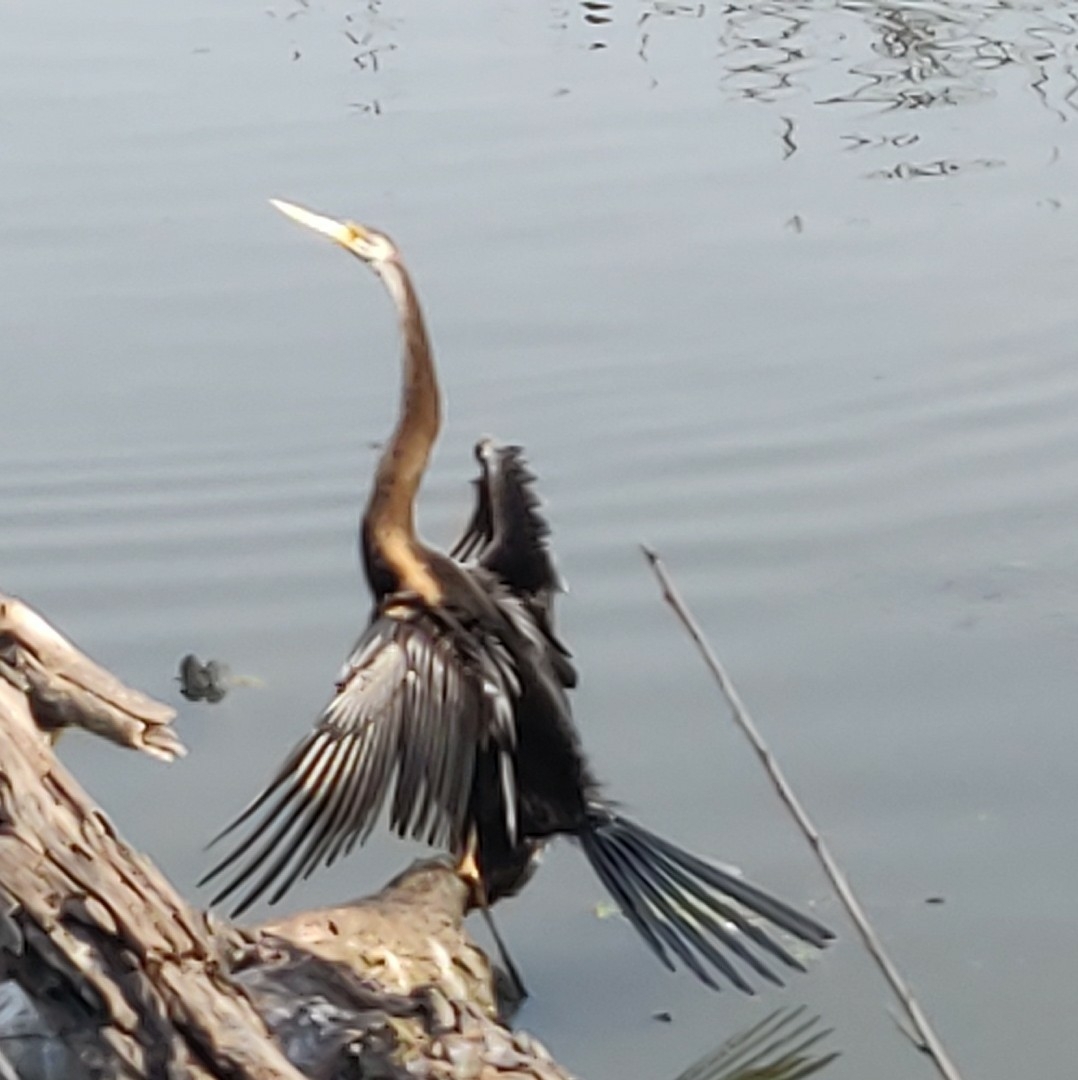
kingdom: Animalia
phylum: Chordata
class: Aves
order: Suliformes
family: Anhingidae
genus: Anhinga
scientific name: Anhinga melanogaster
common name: Oriental darter
